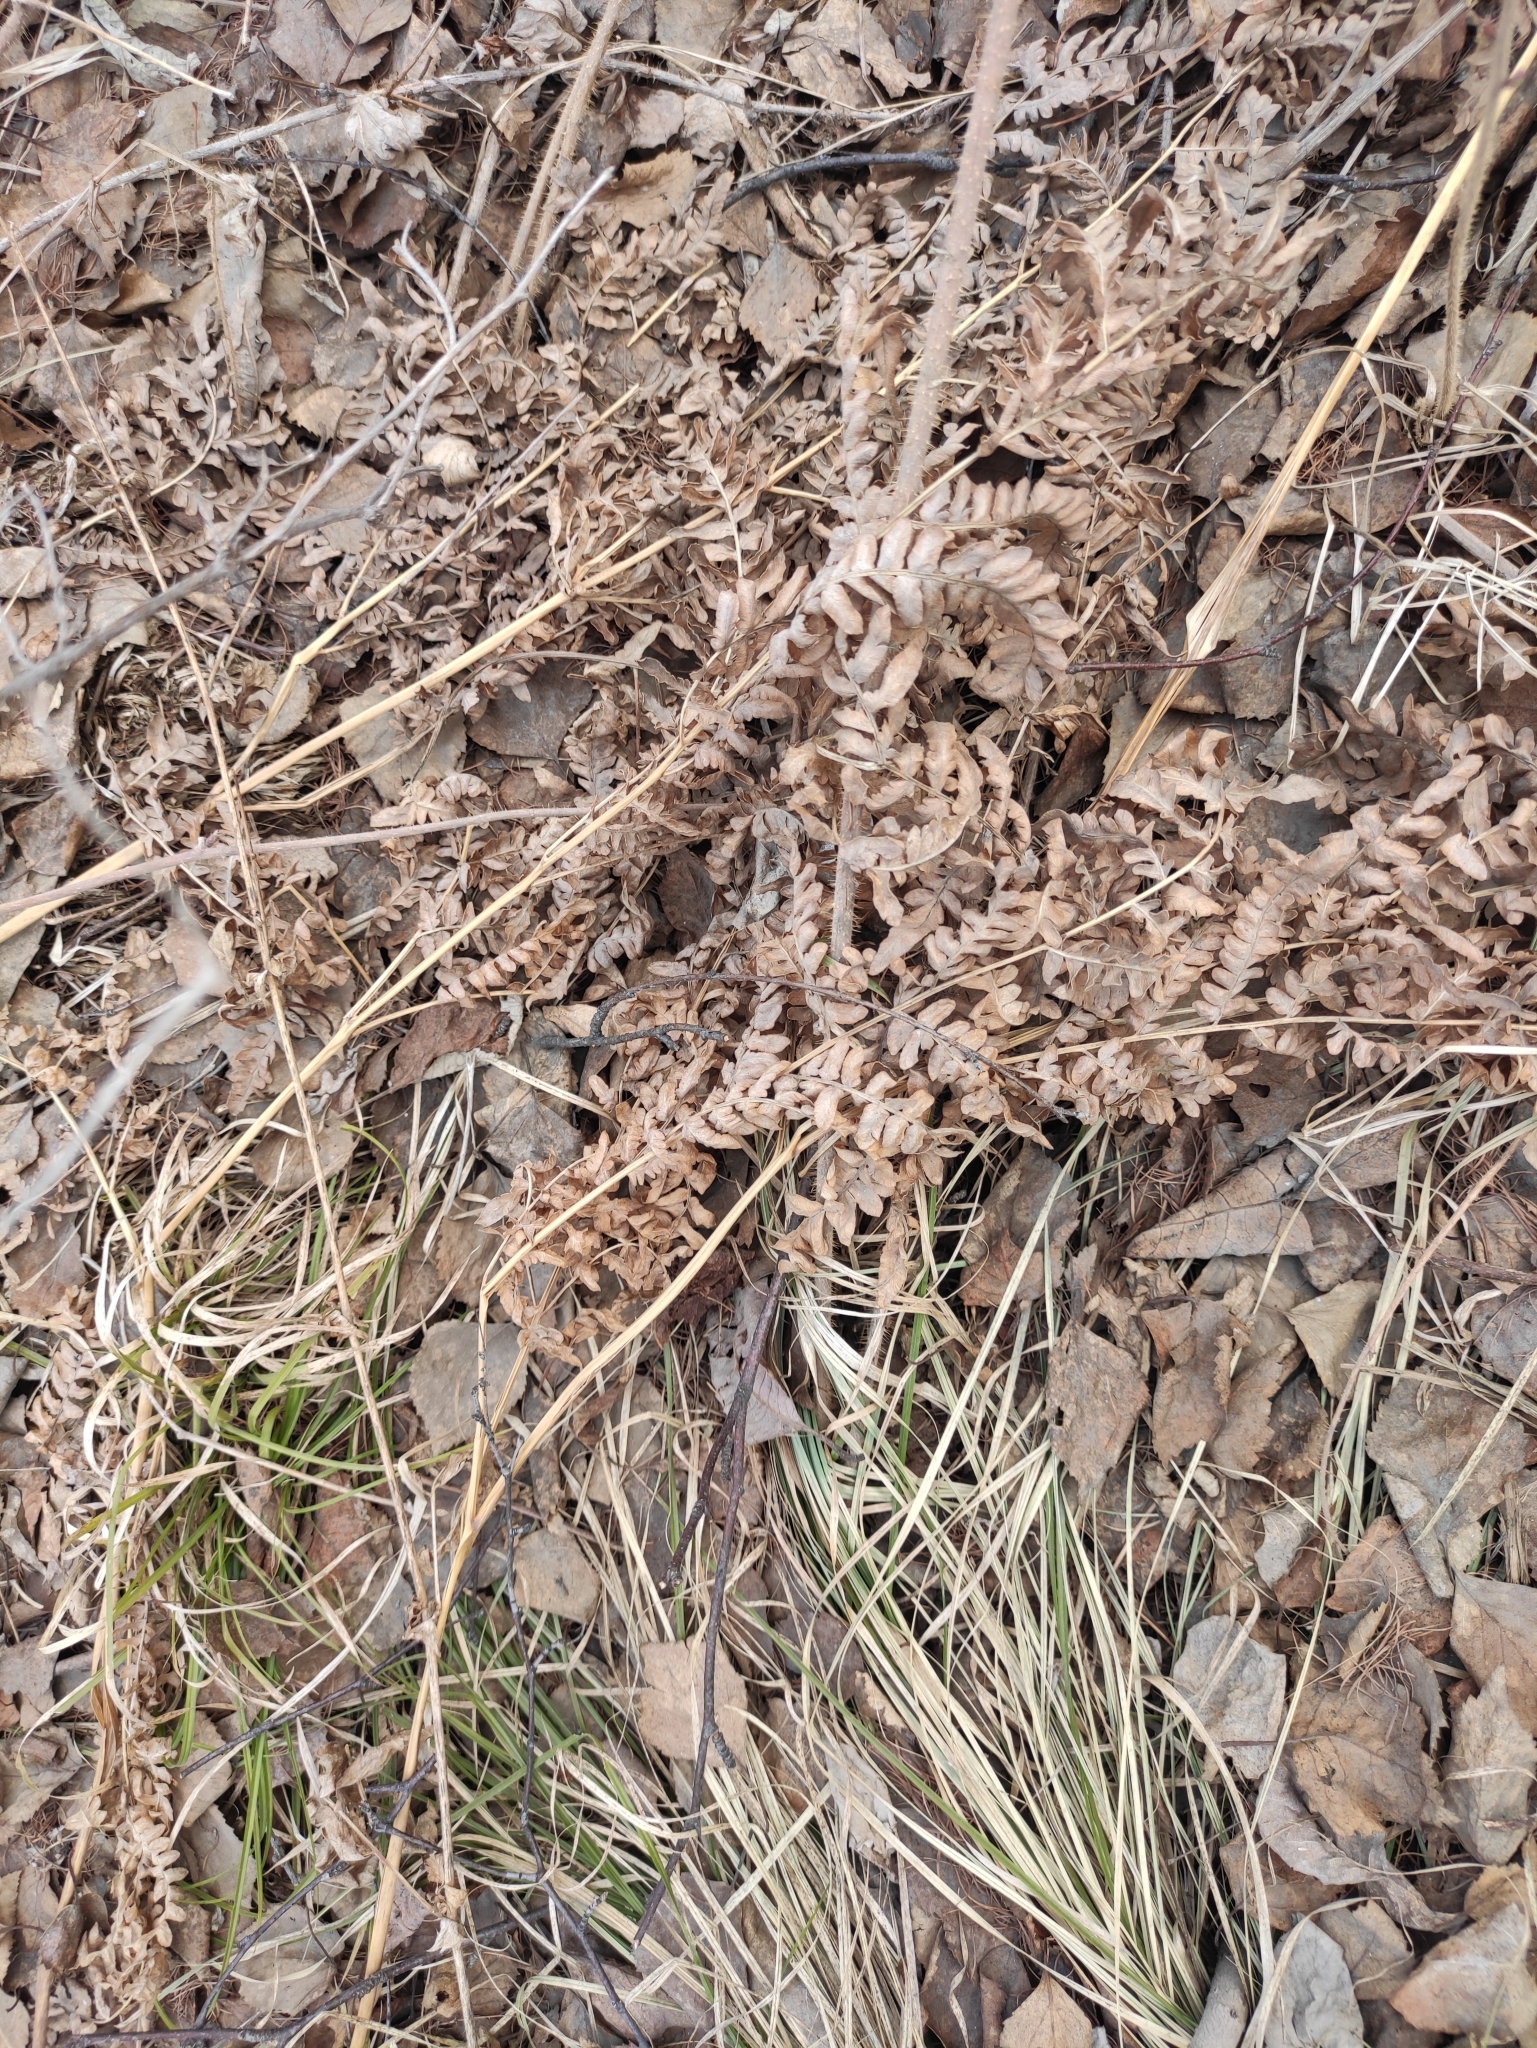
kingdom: Plantae
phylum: Tracheophyta
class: Polypodiopsida
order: Polypodiales
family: Dennstaedtiaceae
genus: Pteridium
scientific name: Pteridium aquilinum
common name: Bracken
